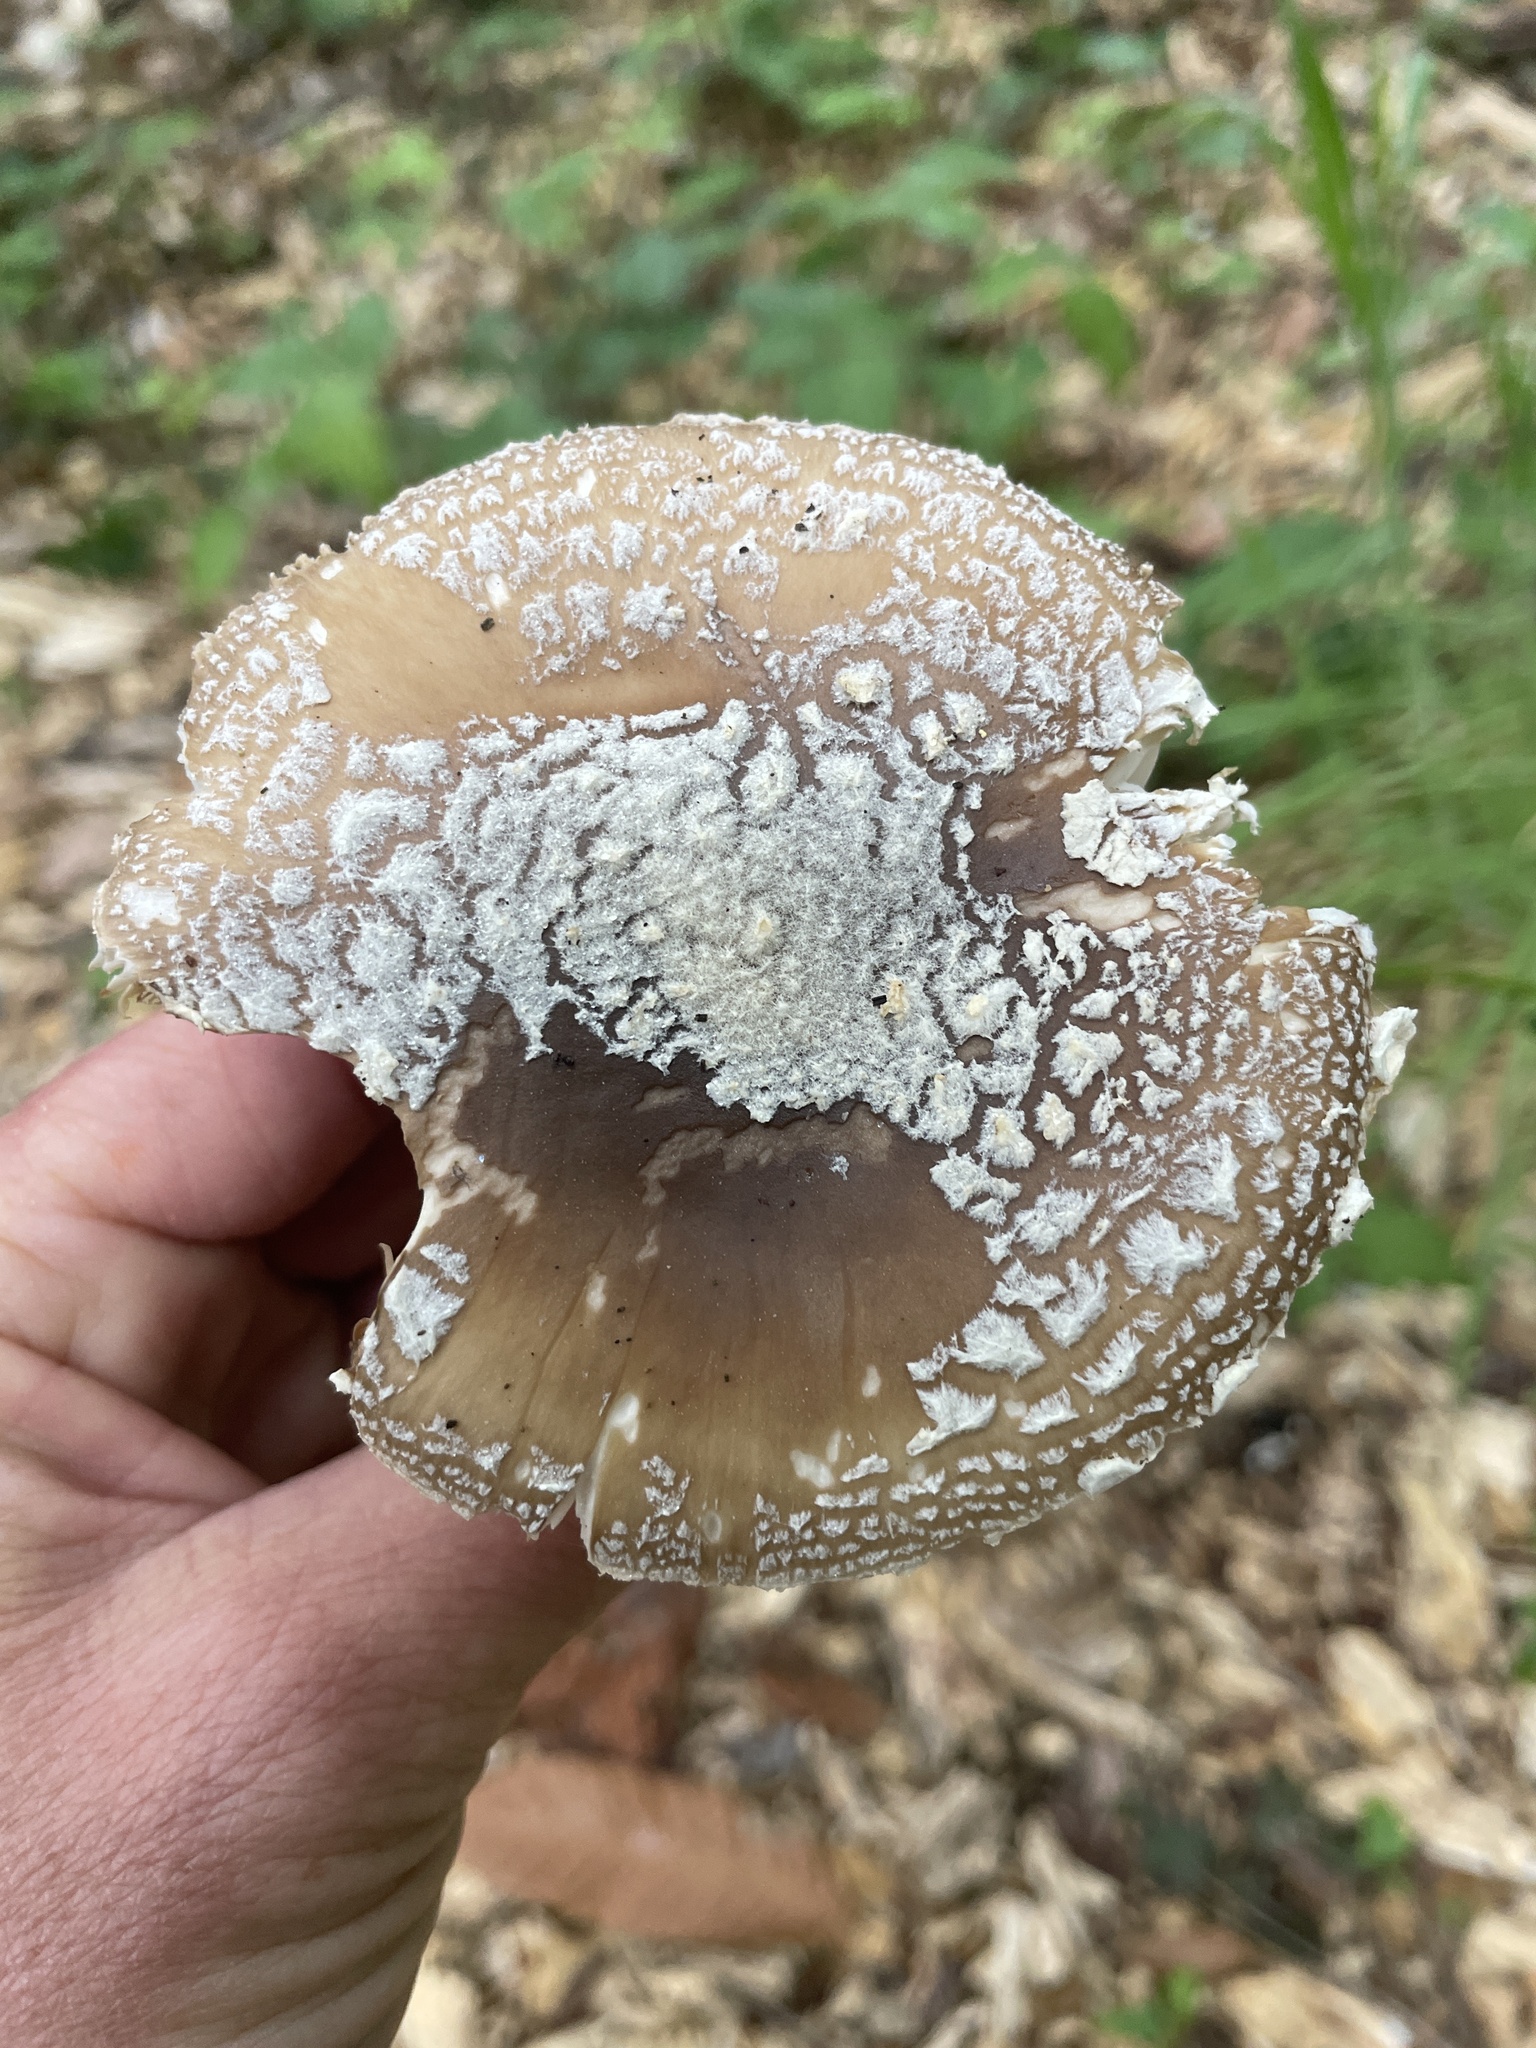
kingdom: Fungi
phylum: Basidiomycota
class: Agaricomycetes
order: Agaricales
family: Amanitaceae
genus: Amanita
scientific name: Amanita pantherinoides
